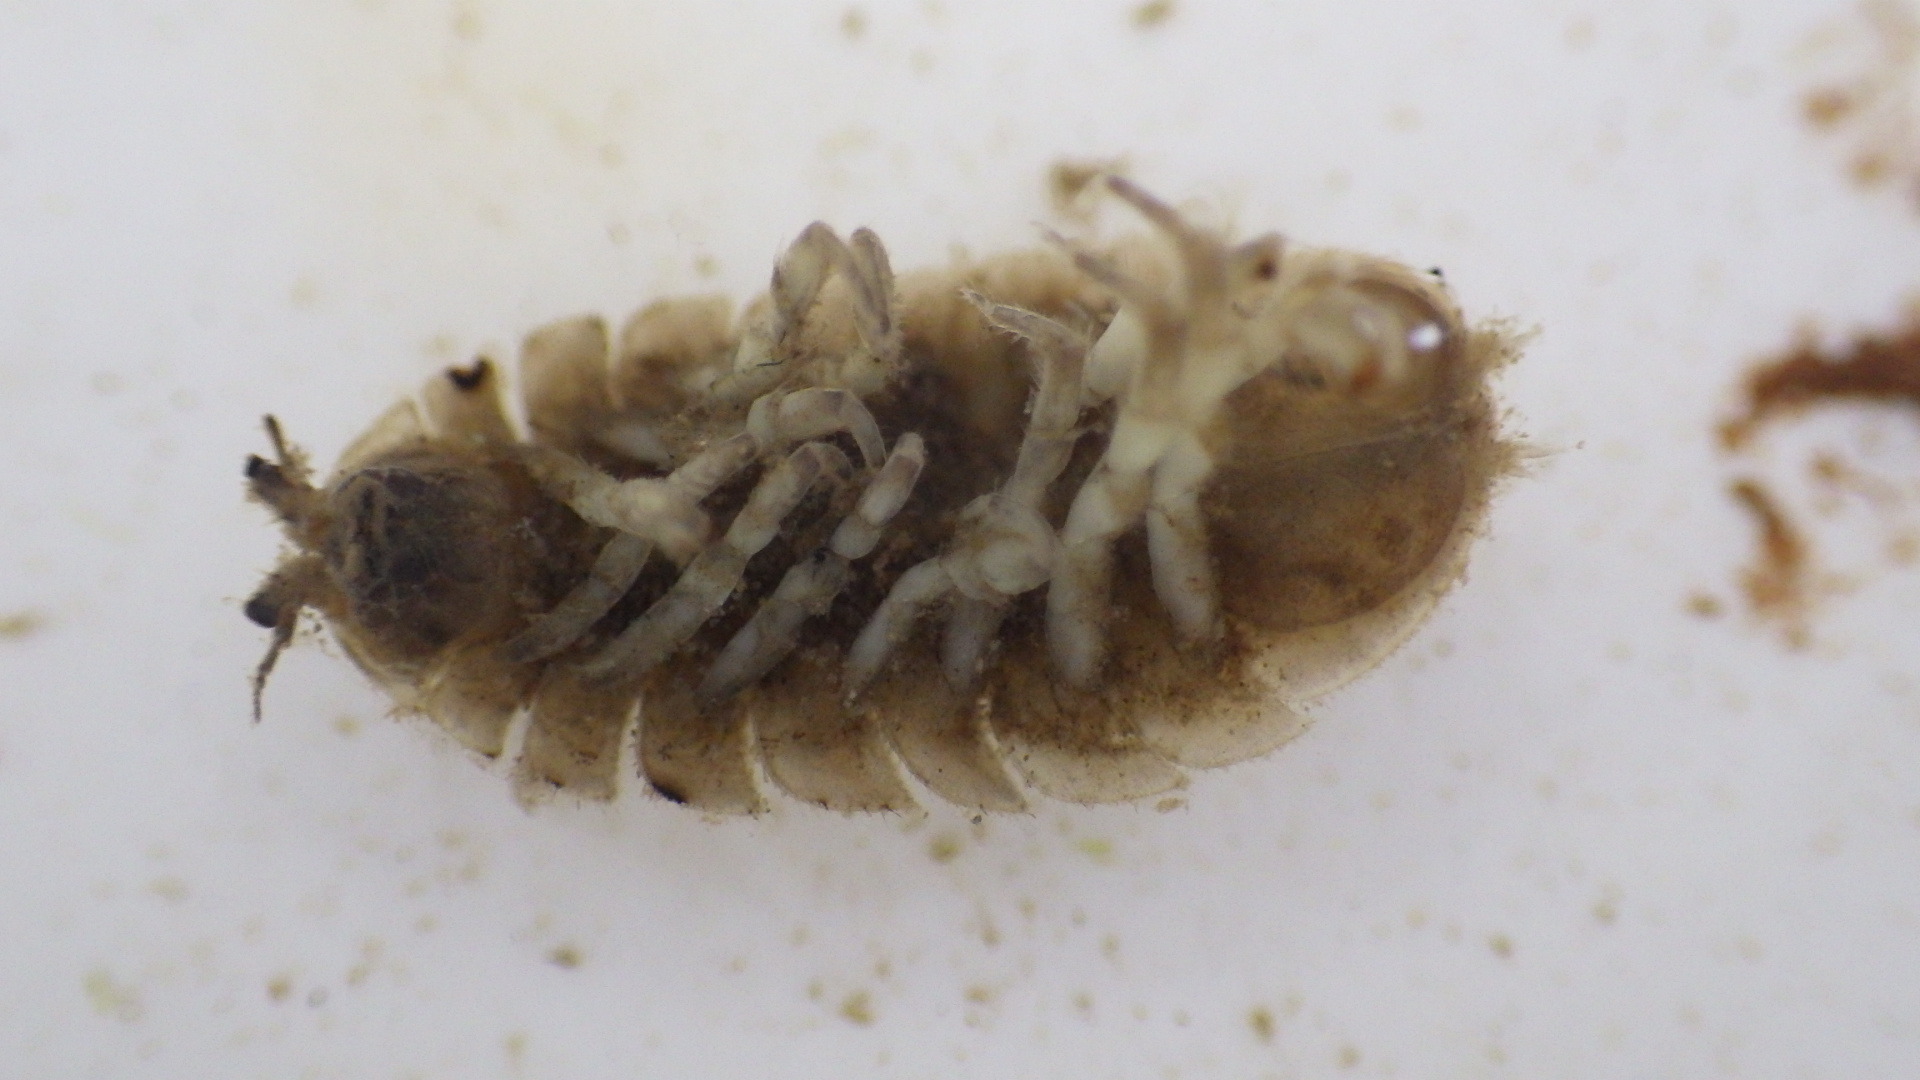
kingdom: Animalia
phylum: Arthropoda
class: Malacostraca
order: Isopoda
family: Asellidae
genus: Lirceus
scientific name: Lirceus brachyurus
